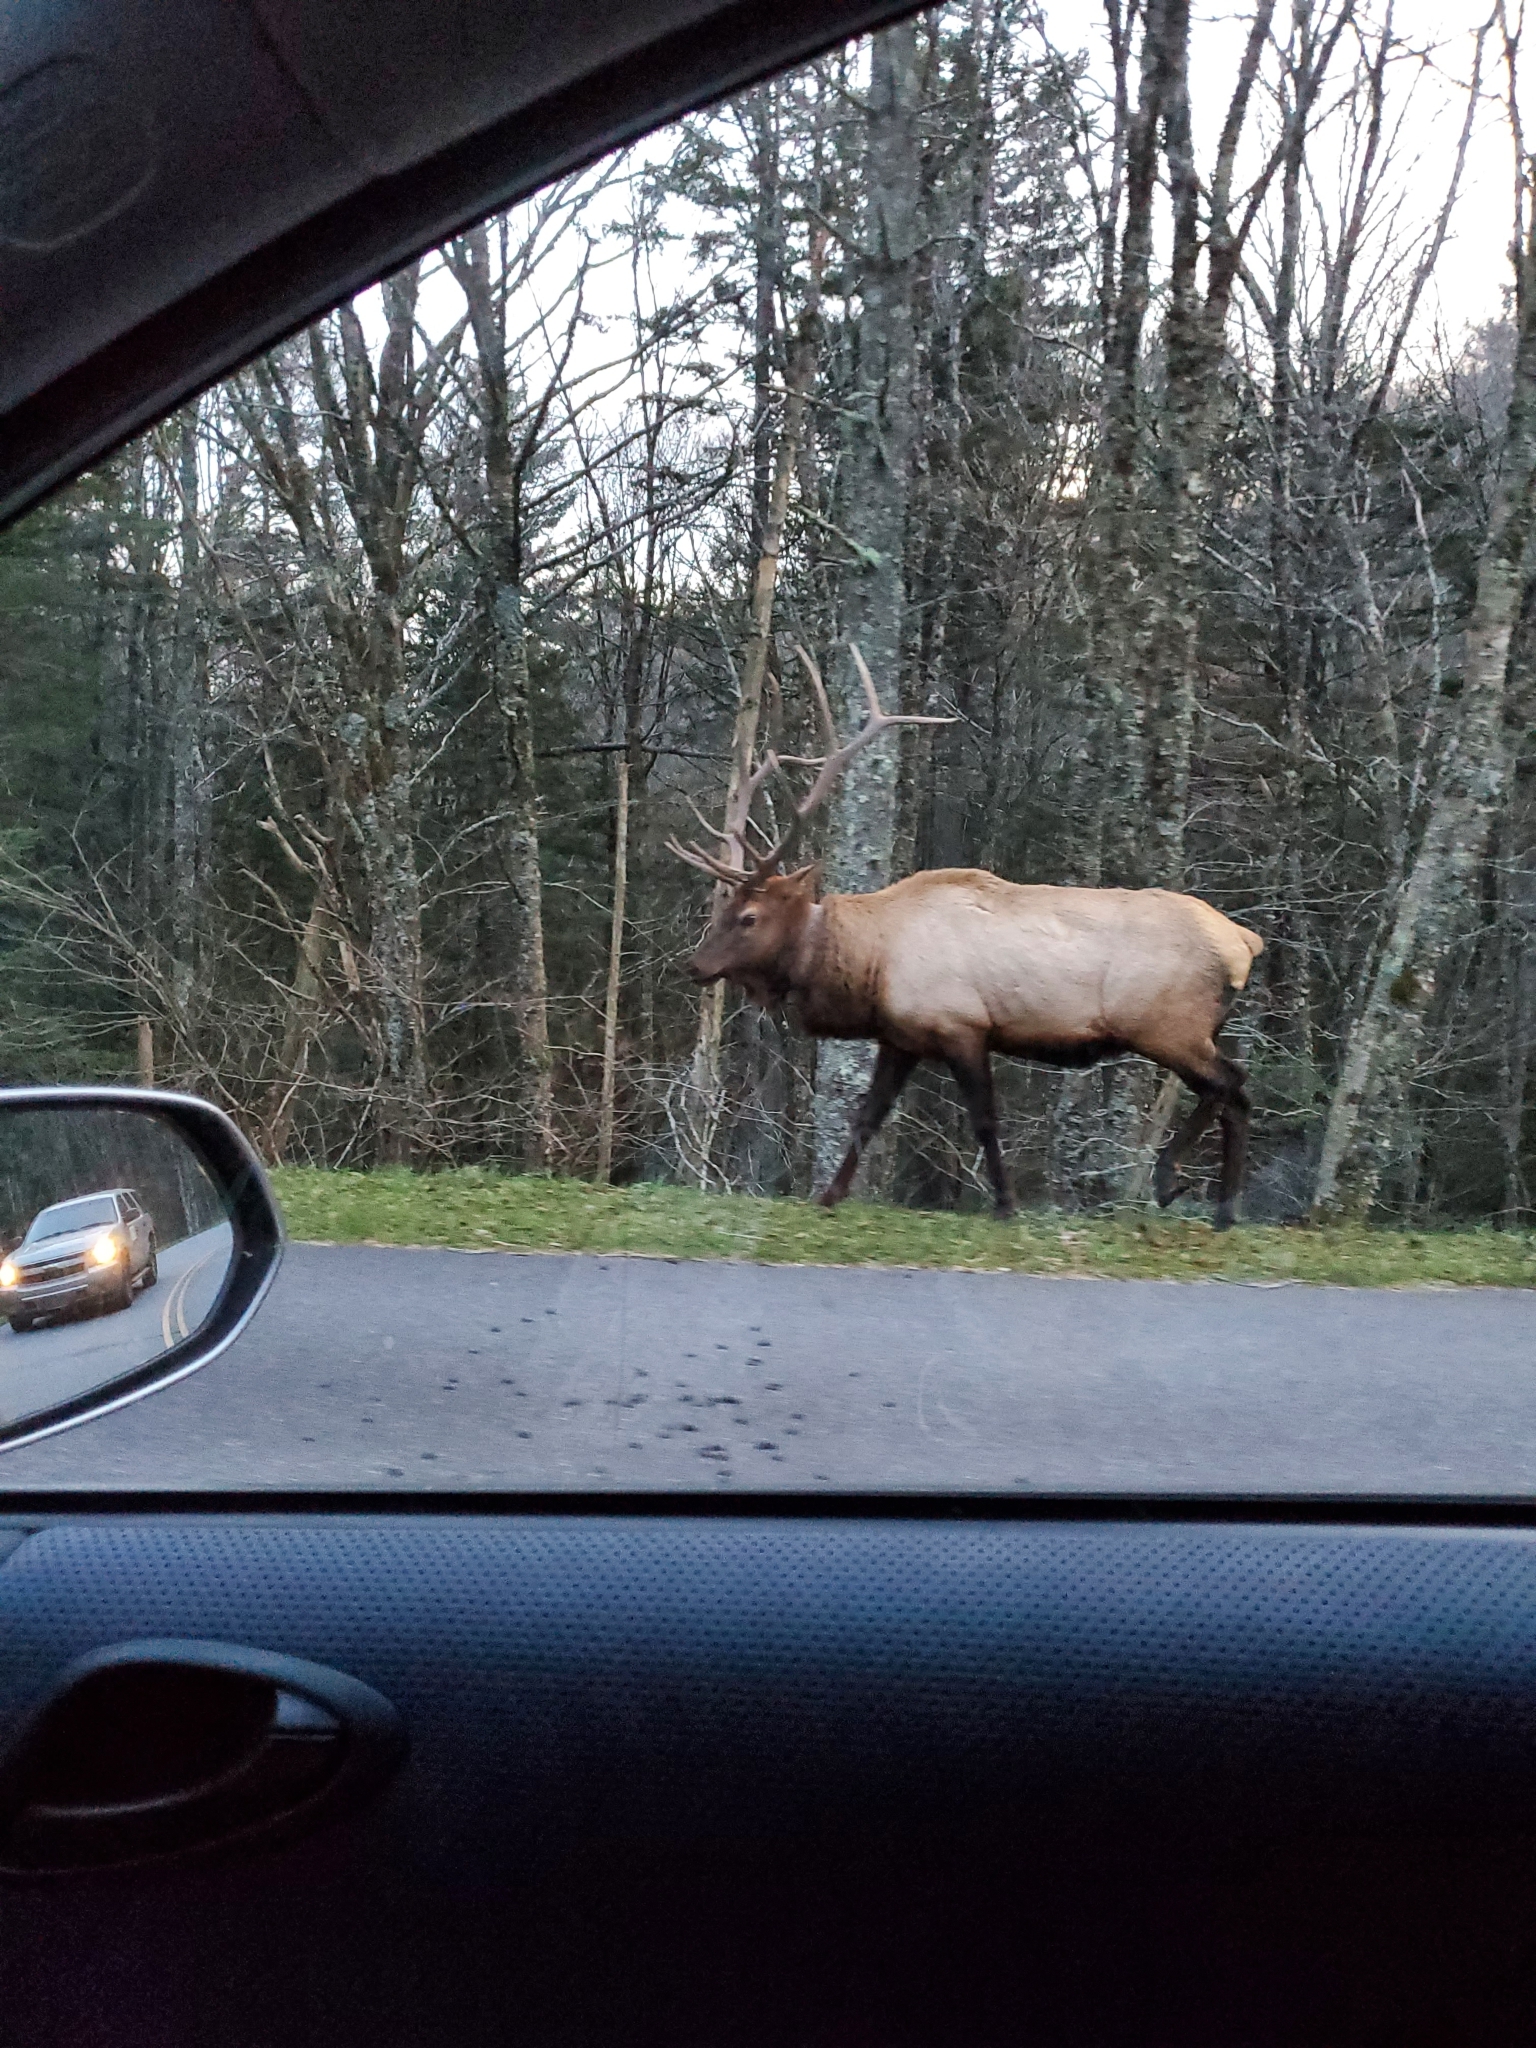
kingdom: Animalia
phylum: Chordata
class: Mammalia
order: Artiodactyla
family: Cervidae
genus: Cervus
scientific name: Cervus elaphus
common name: Red deer
